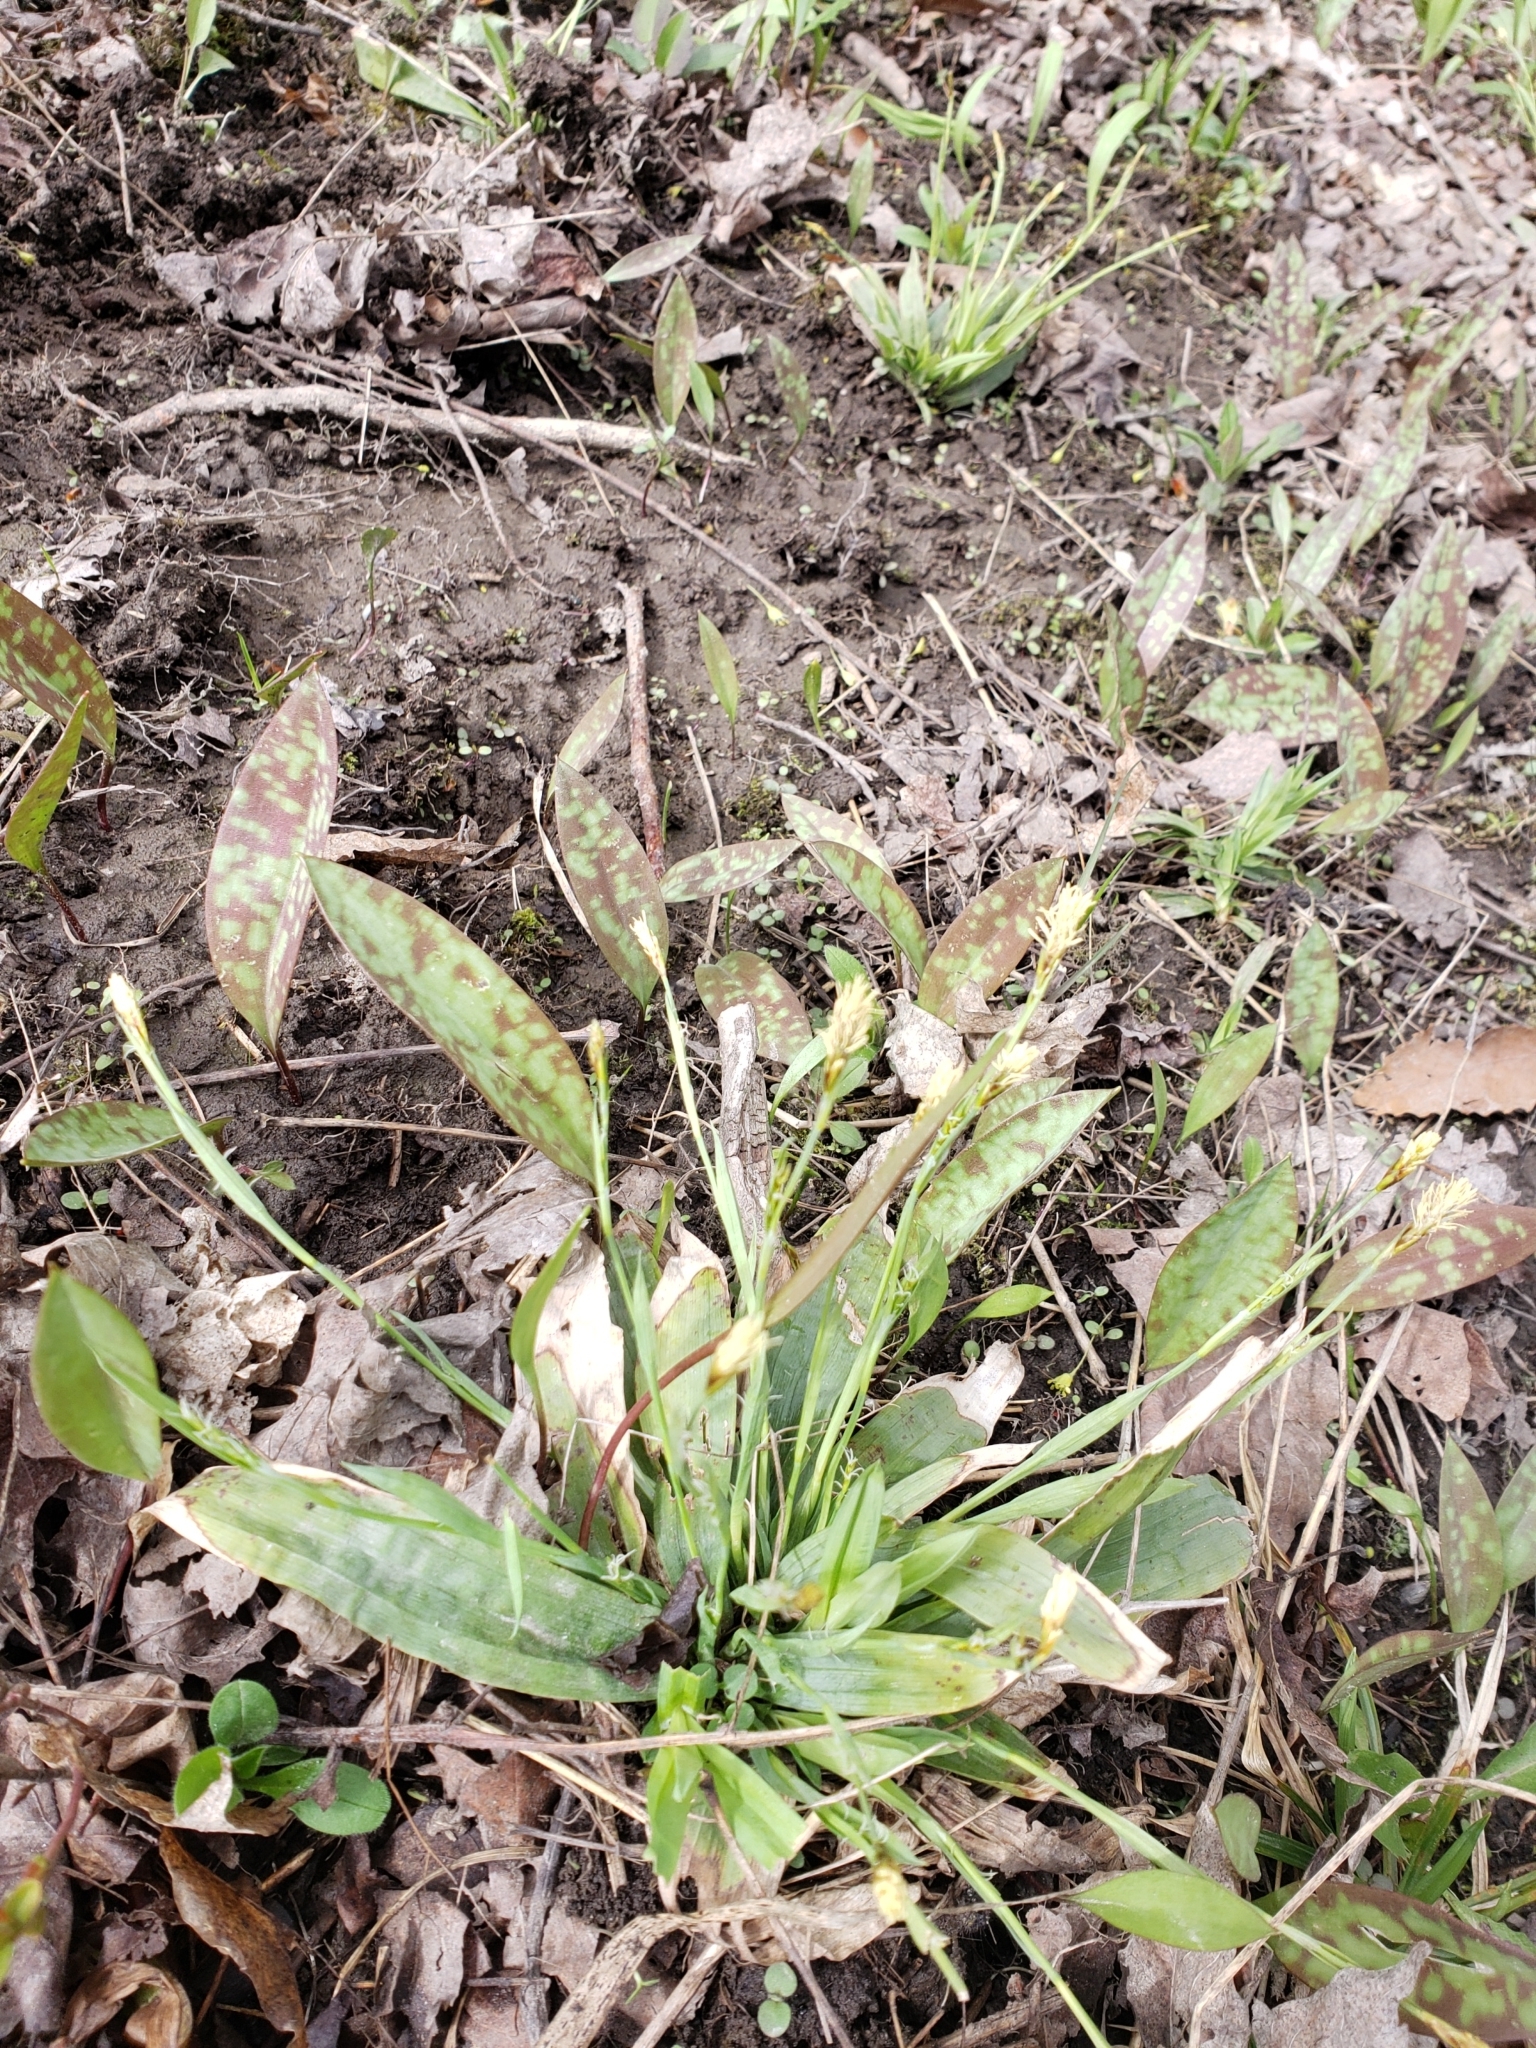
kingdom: Plantae
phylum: Tracheophyta
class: Liliopsida
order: Poales
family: Cyperaceae
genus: Carex
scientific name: Carex platyphylla
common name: Broad-leaved sedge
